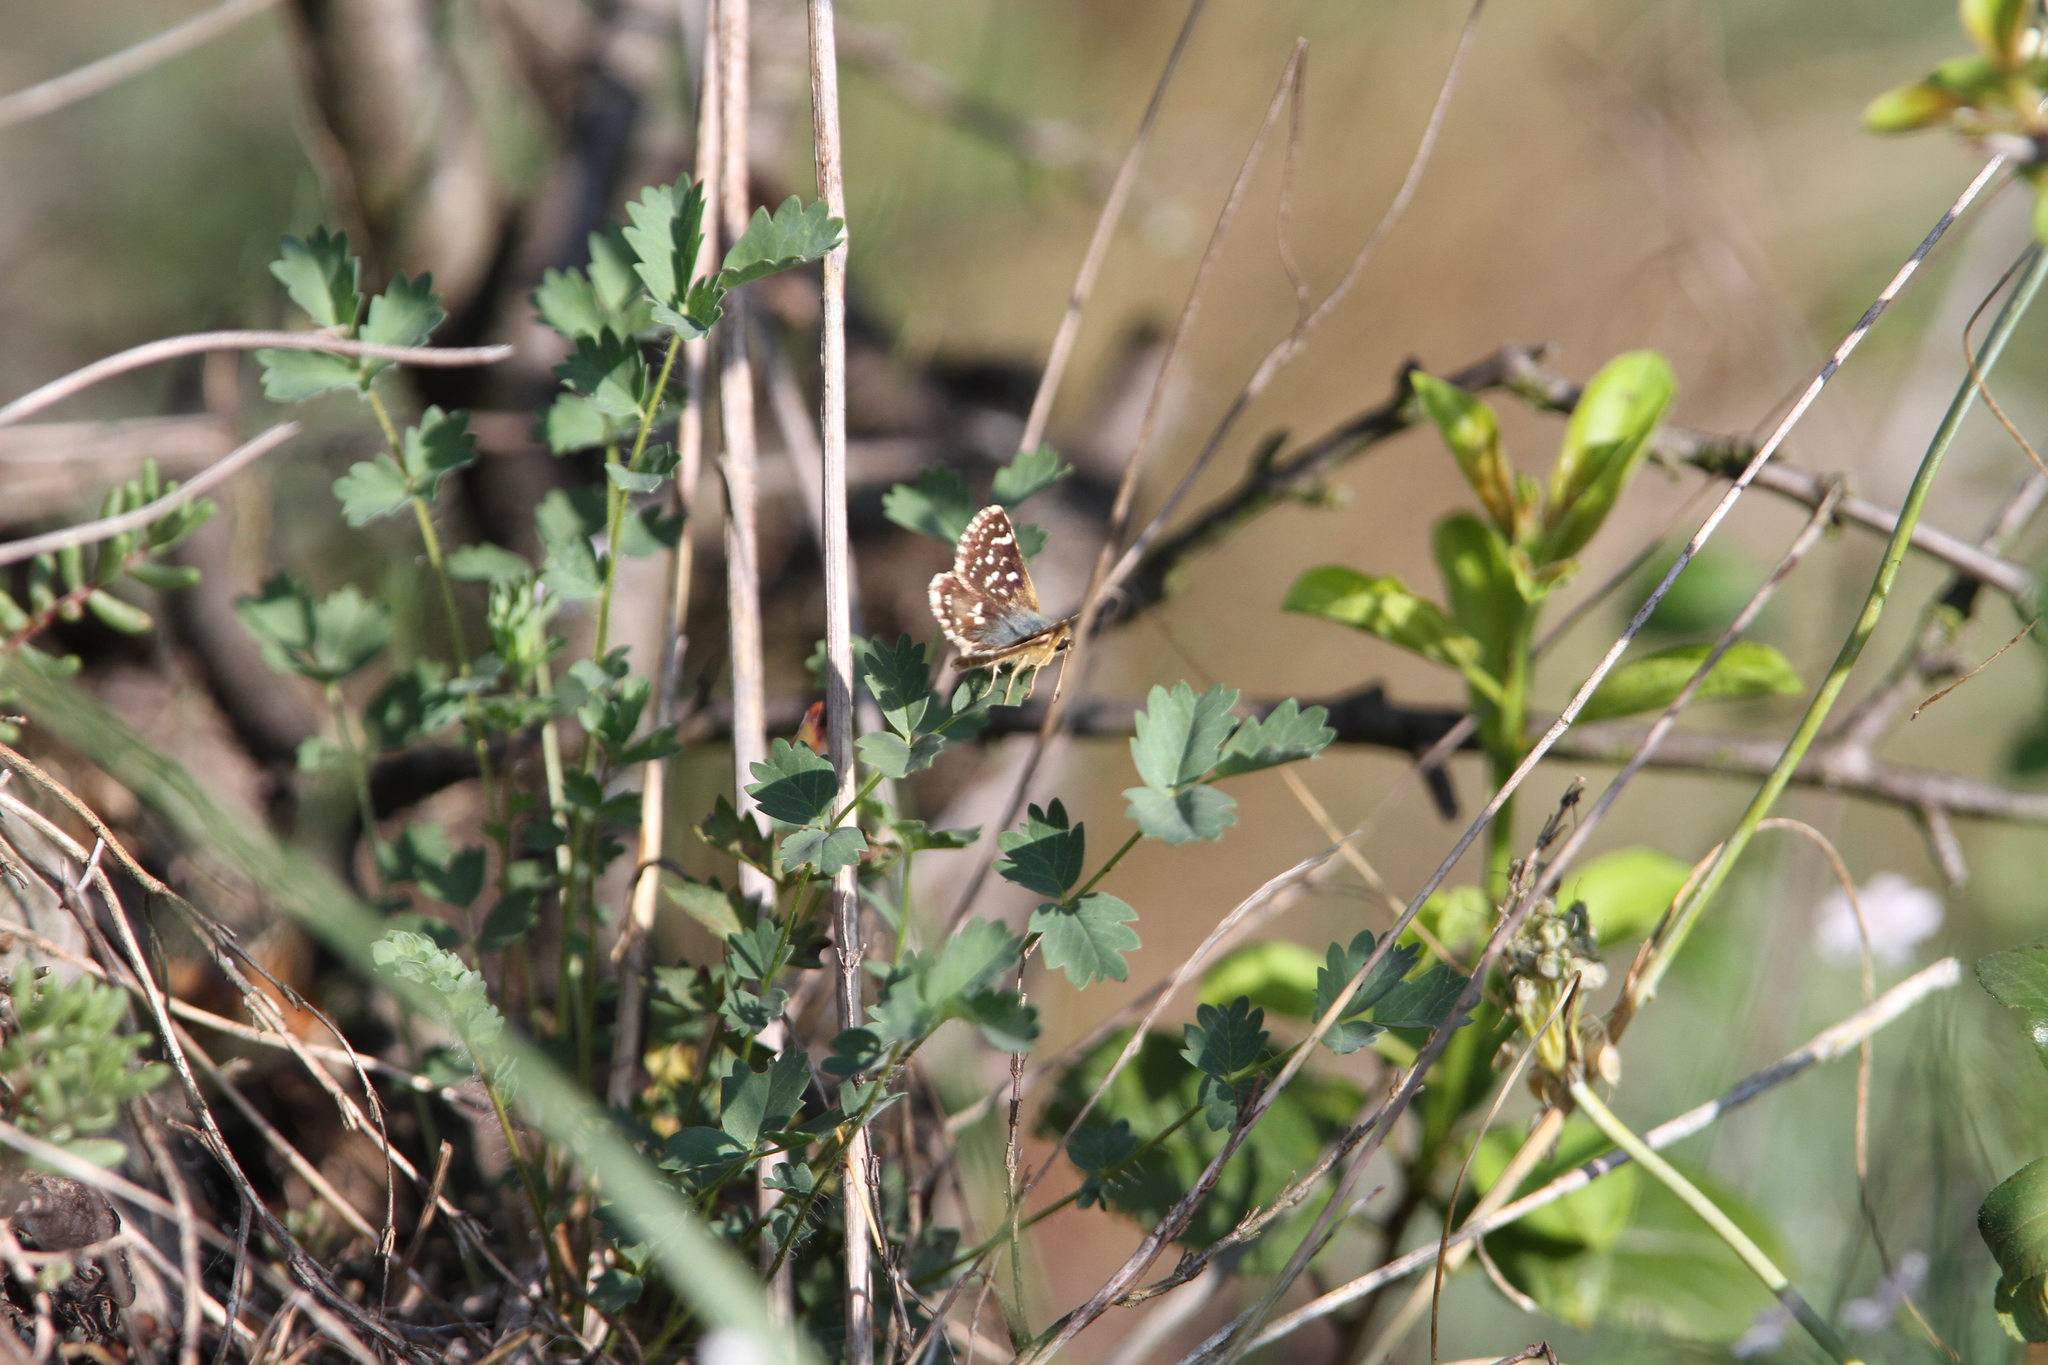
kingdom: Animalia
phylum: Arthropoda
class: Insecta
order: Lepidoptera
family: Hesperiidae
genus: Spialia
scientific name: Spialia sertorius
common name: Red underwing skipper
